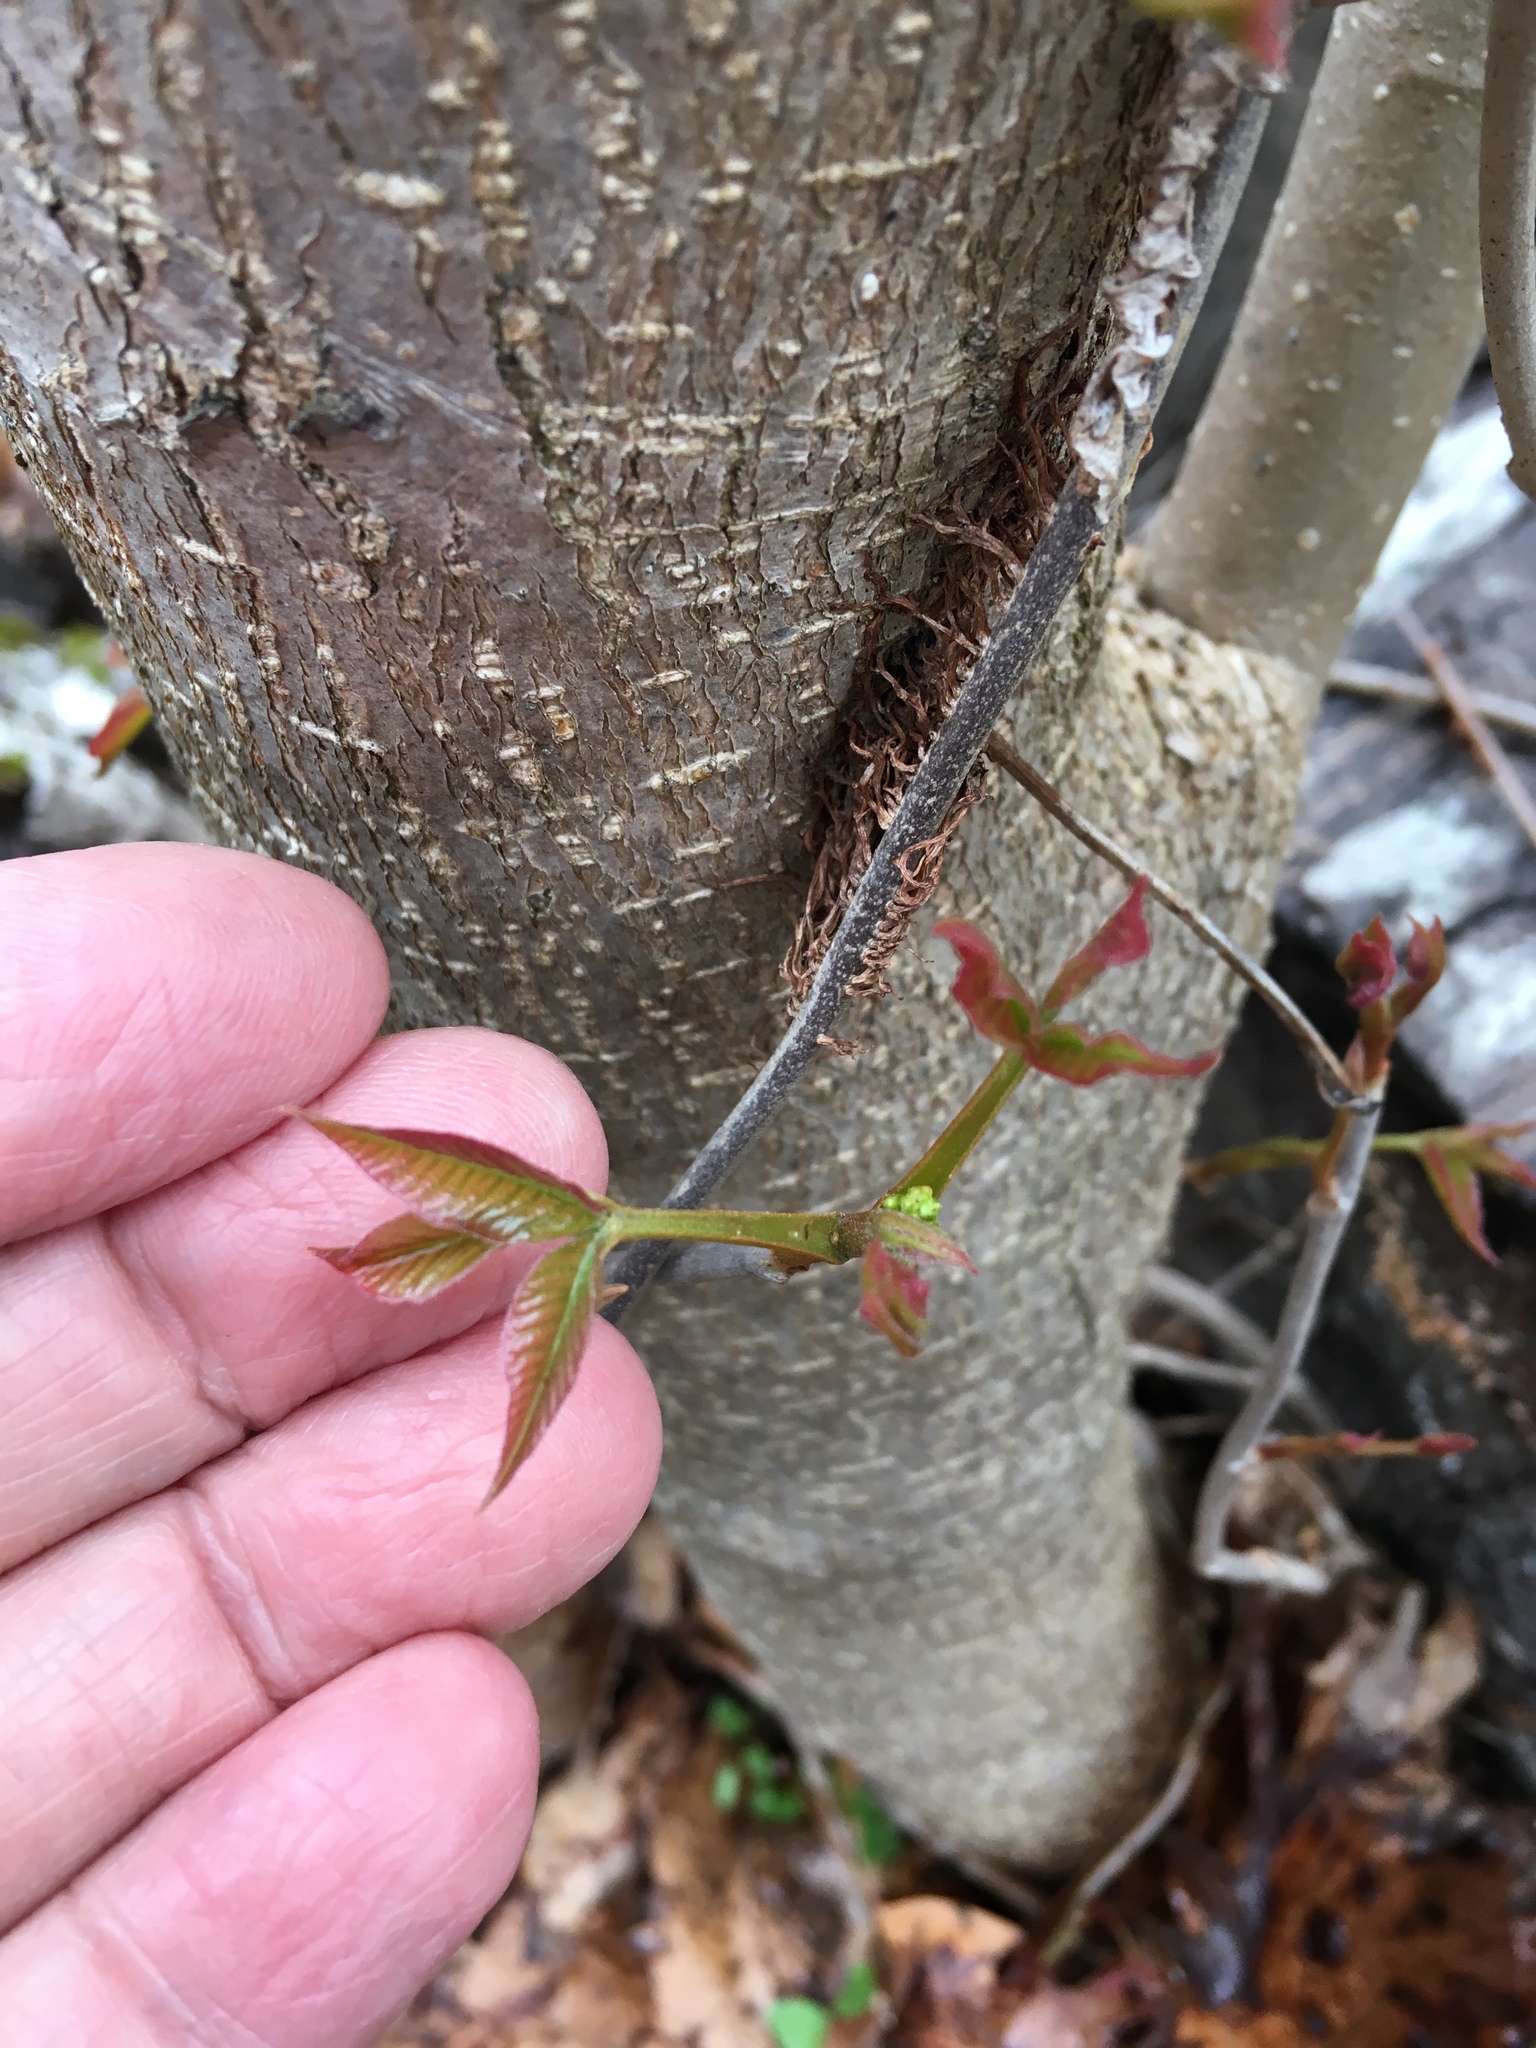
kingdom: Plantae
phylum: Tracheophyta
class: Magnoliopsida
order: Sapindales
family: Anacardiaceae
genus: Toxicodendron
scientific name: Toxicodendron radicans
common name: Poison ivy
